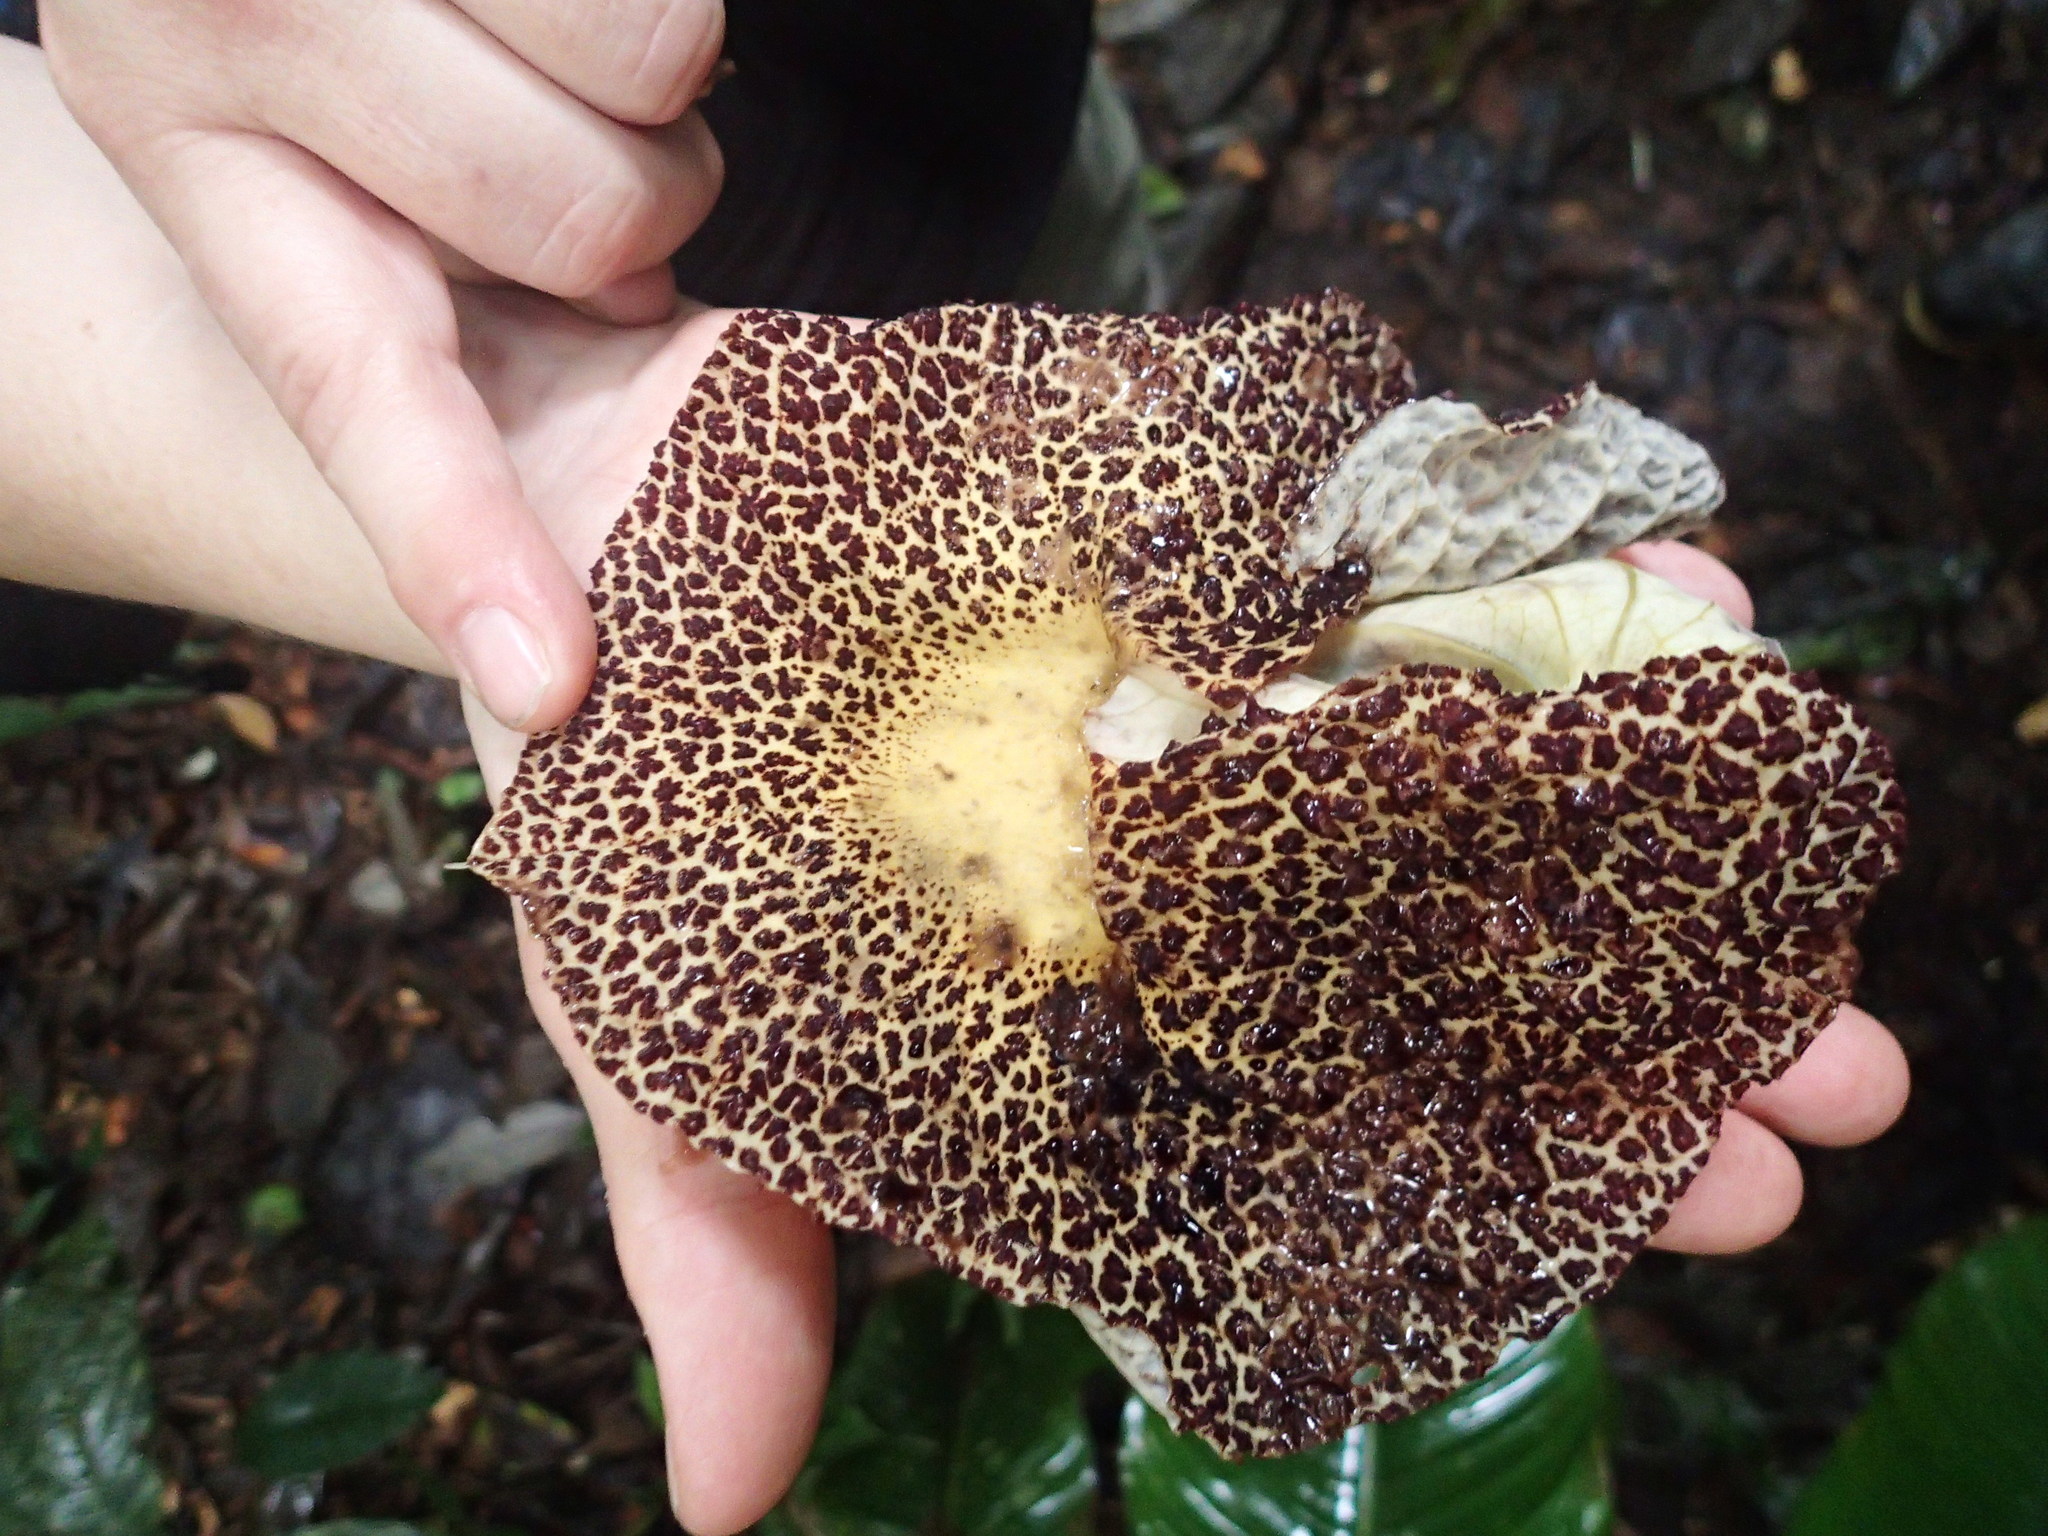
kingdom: Plantae
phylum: Tracheophyta
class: Magnoliopsida
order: Piperales
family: Aristolochiaceae
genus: Aristolochia
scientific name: Aristolochia cordiflora
